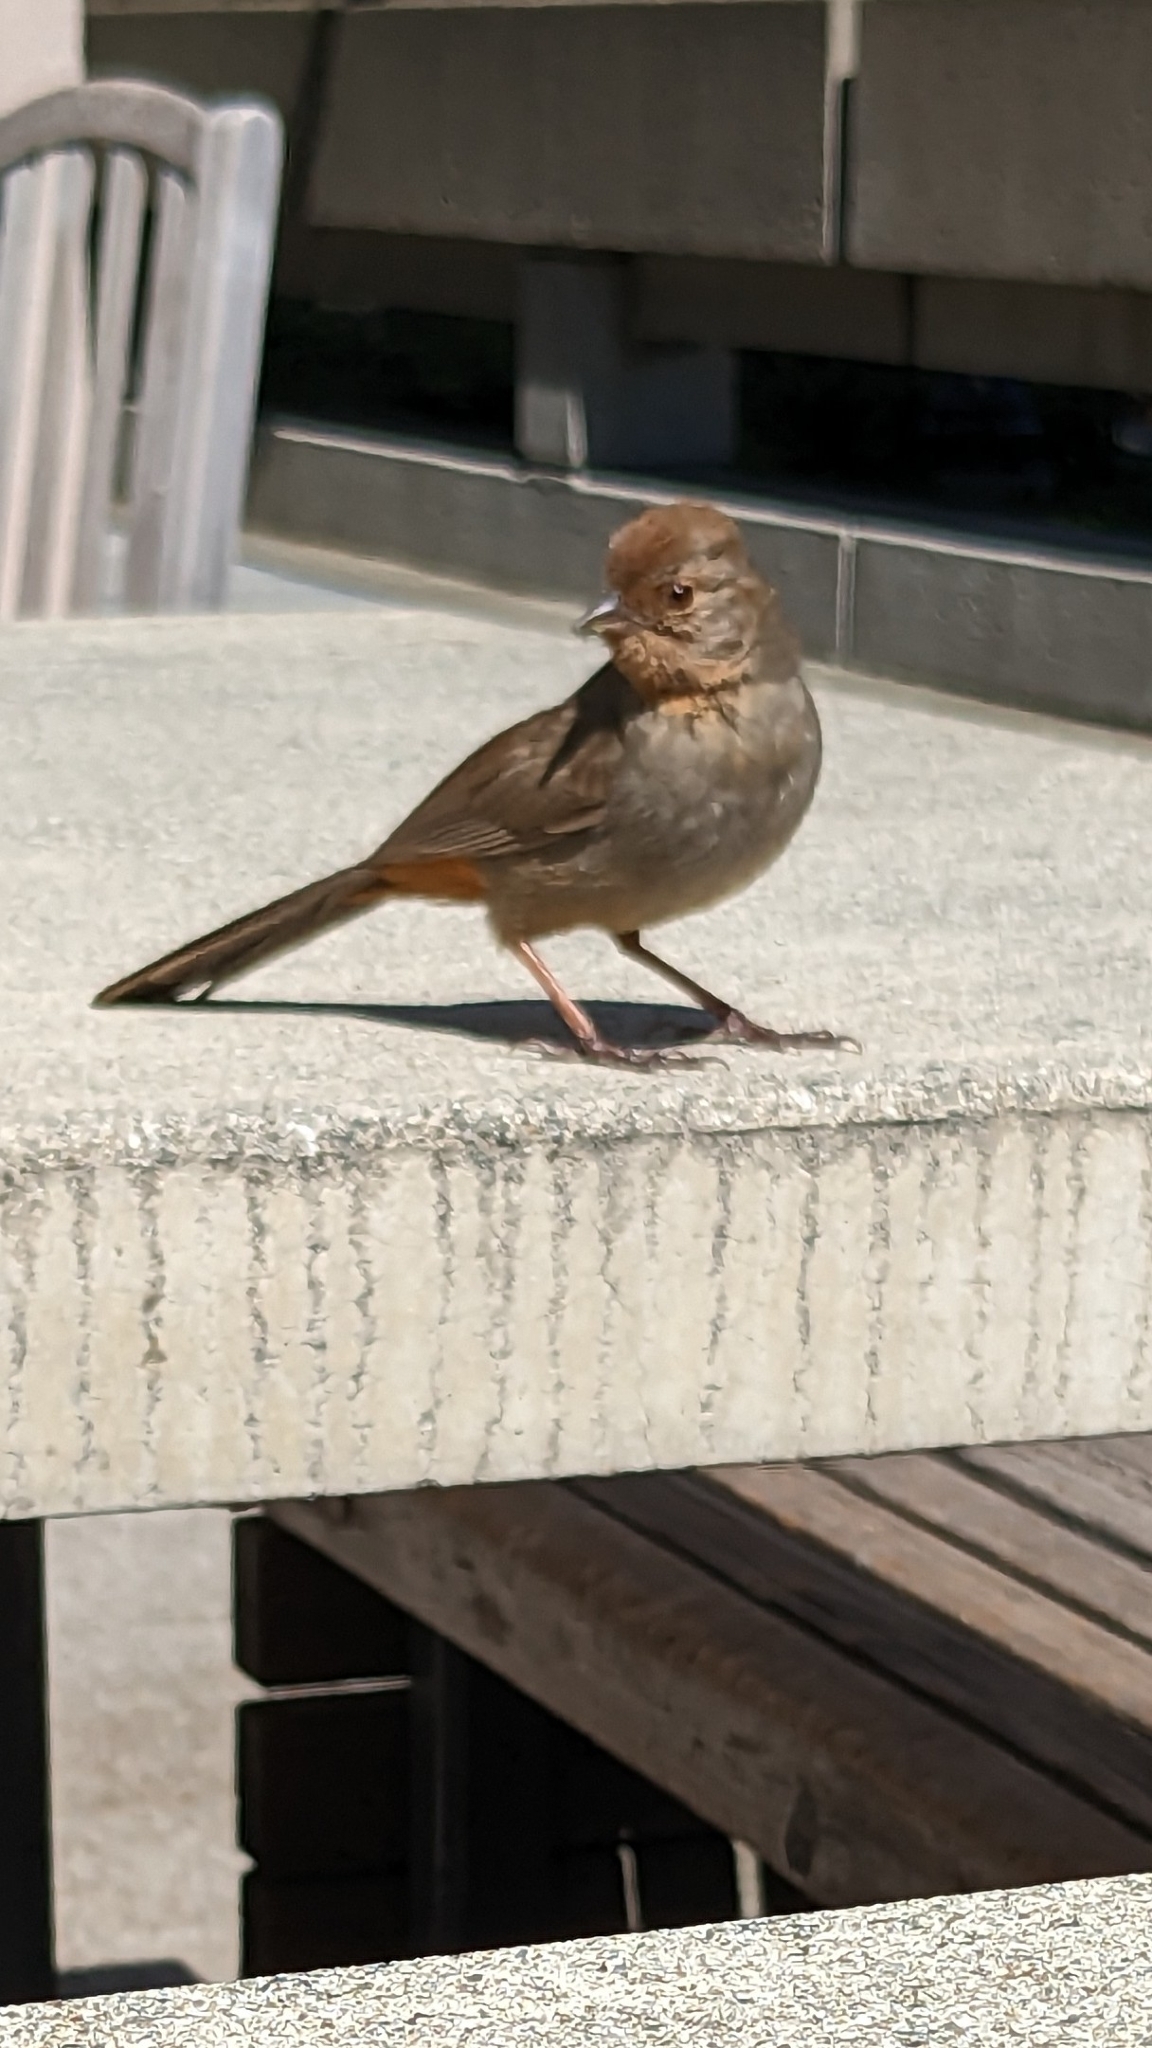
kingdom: Animalia
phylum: Chordata
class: Aves
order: Passeriformes
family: Passerellidae
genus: Melozone
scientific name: Melozone crissalis
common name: California towhee
